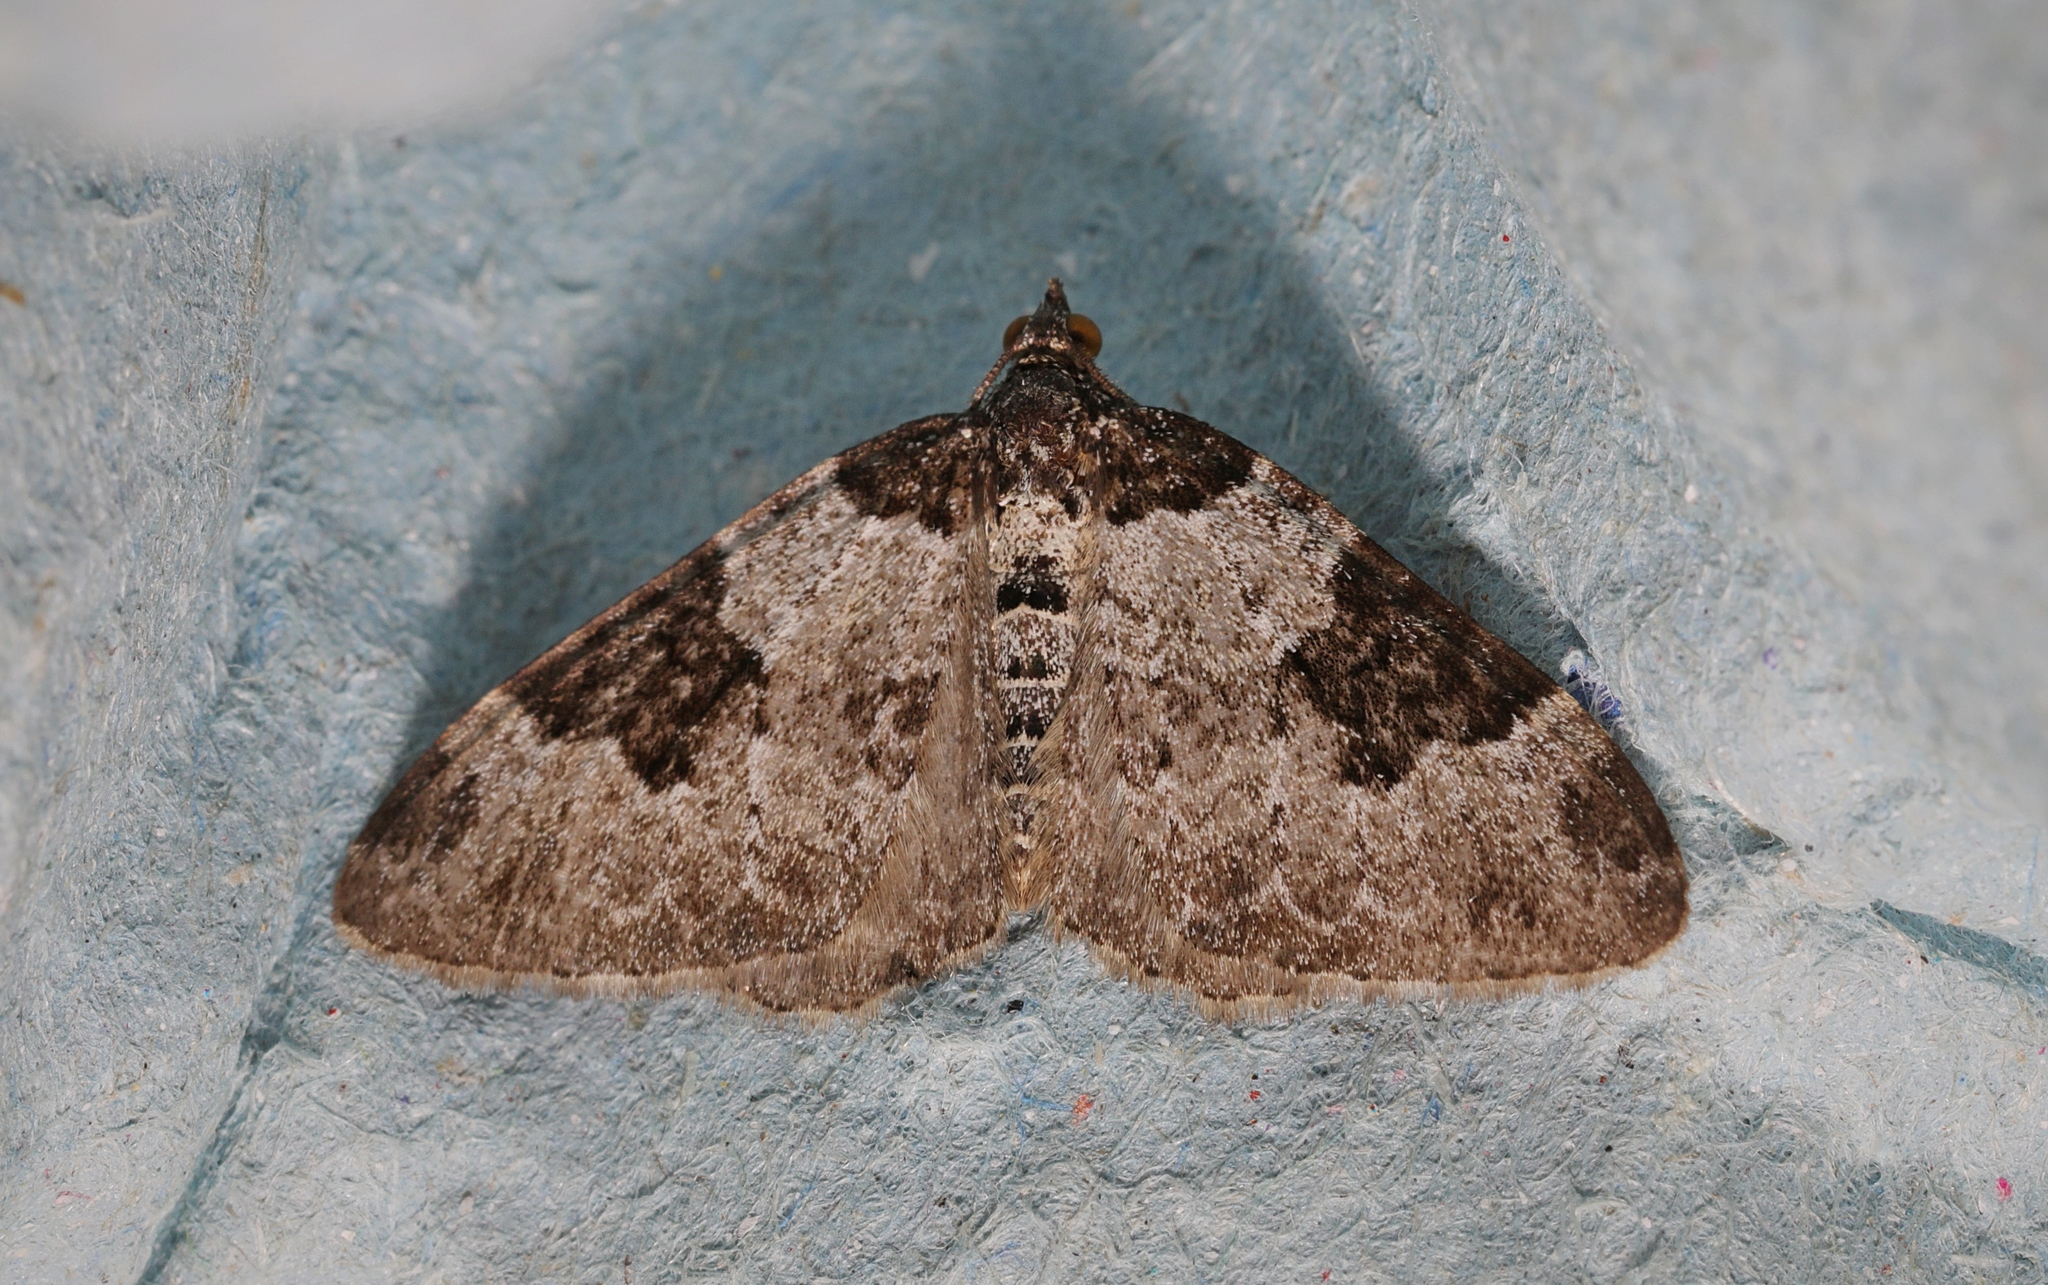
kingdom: Animalia
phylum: Arthropoda
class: Insecta
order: Lepidoptera
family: Geometridae
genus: Xanthorhoe
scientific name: Xanthorhoe fluctuata
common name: Garden carpet
